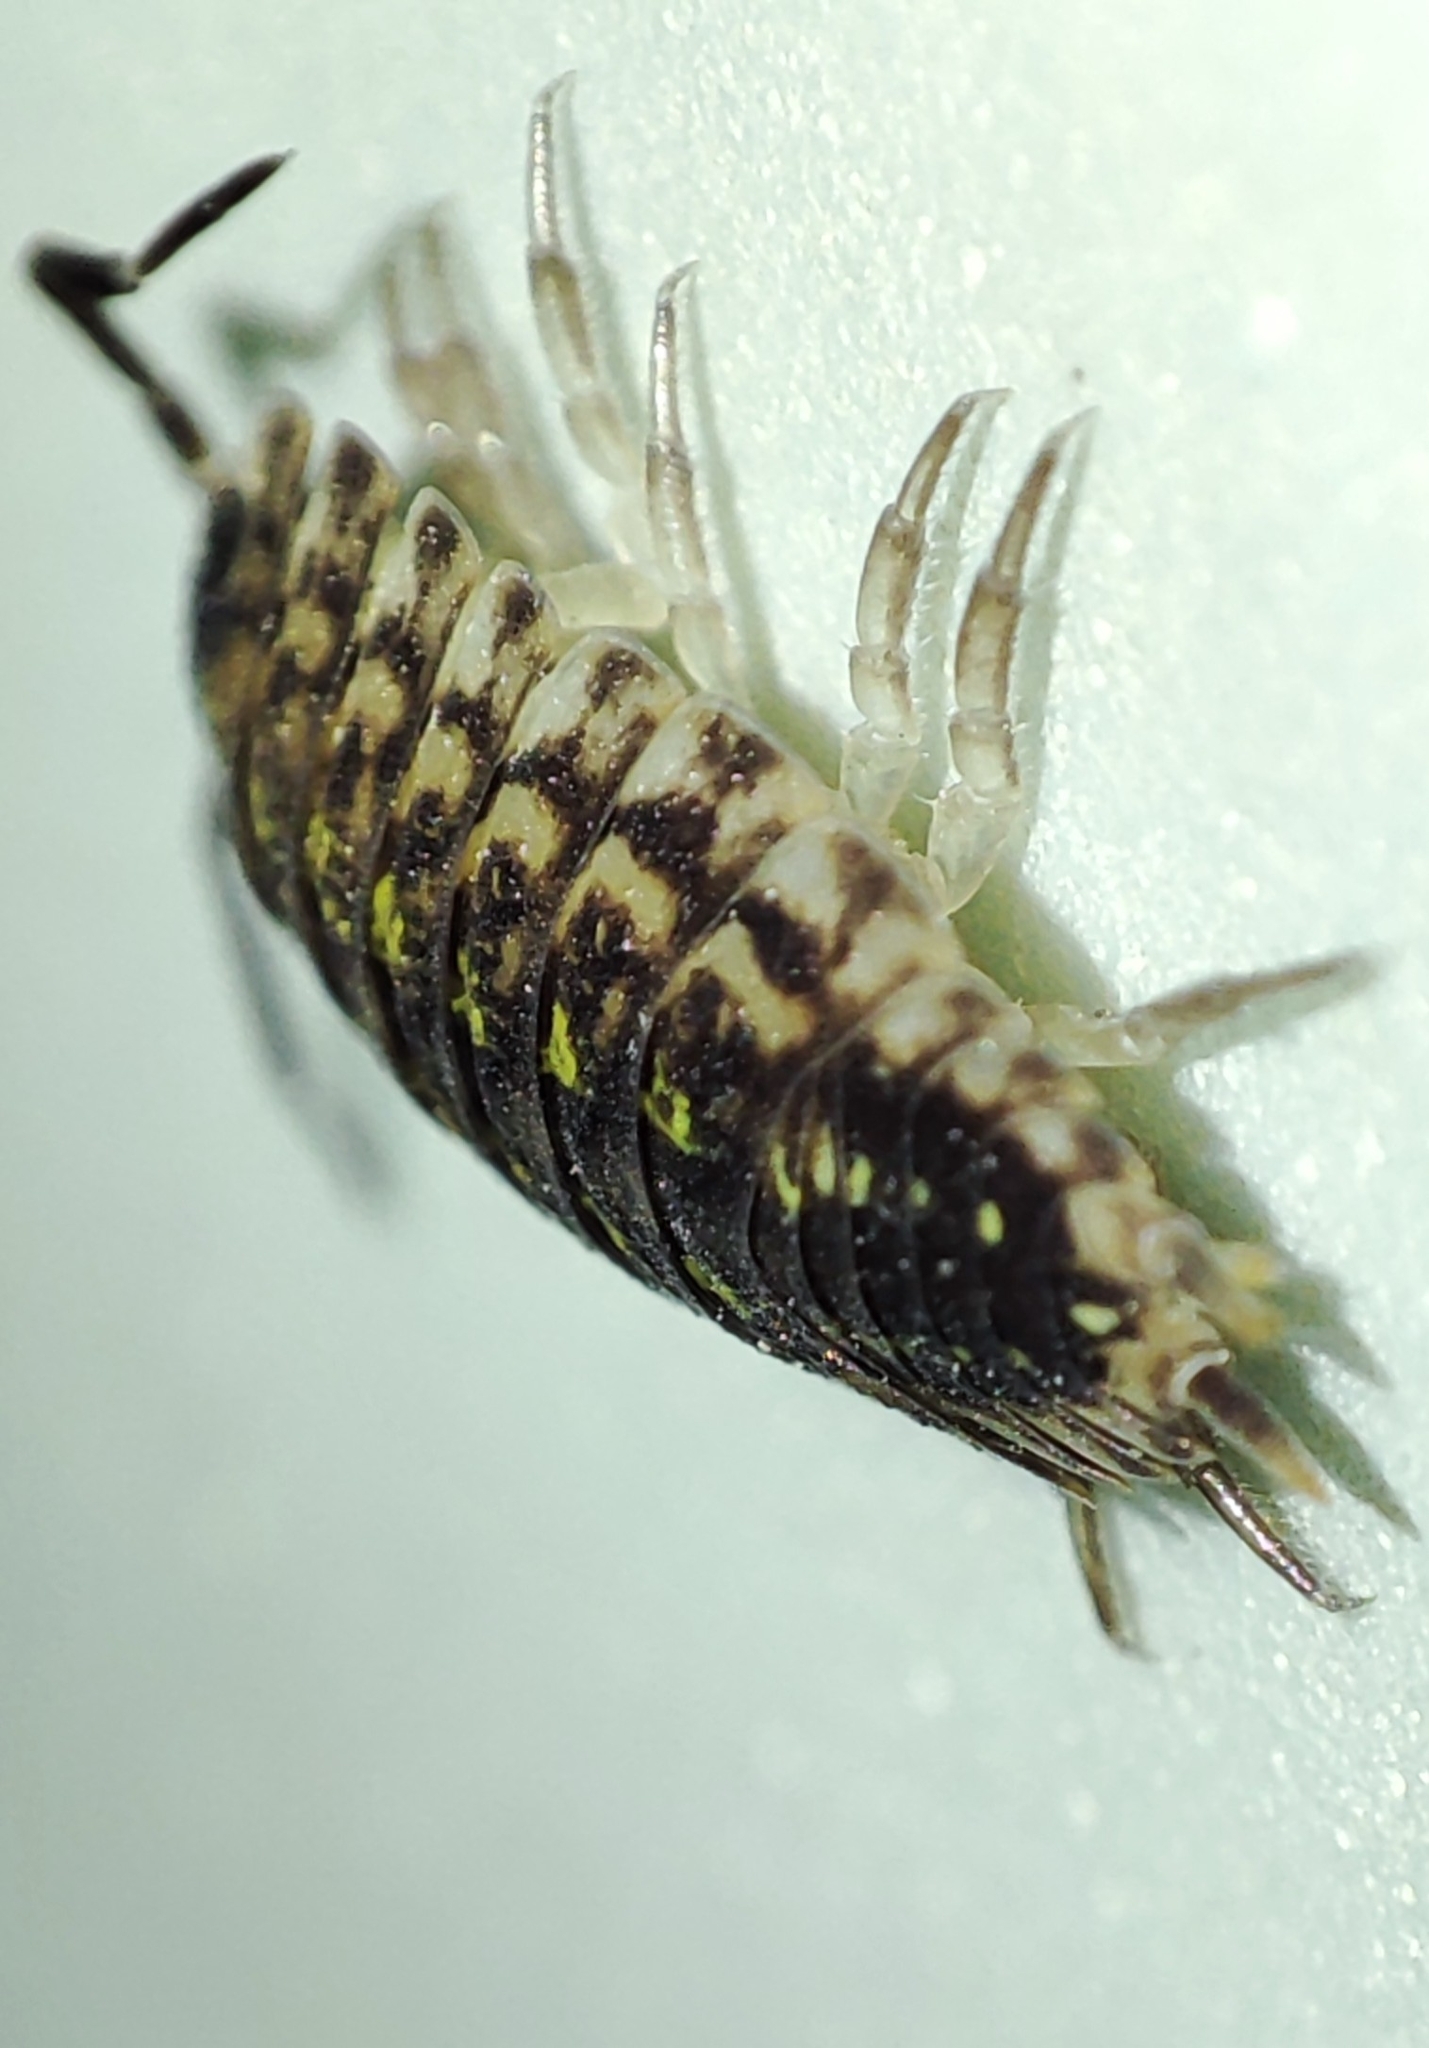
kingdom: Animalia
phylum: Arthropoda
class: Malacostraca
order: Isopoda
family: Porcellionidae
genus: Porcellio
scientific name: Porcellio spinicornis
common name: Painted woodlouse
